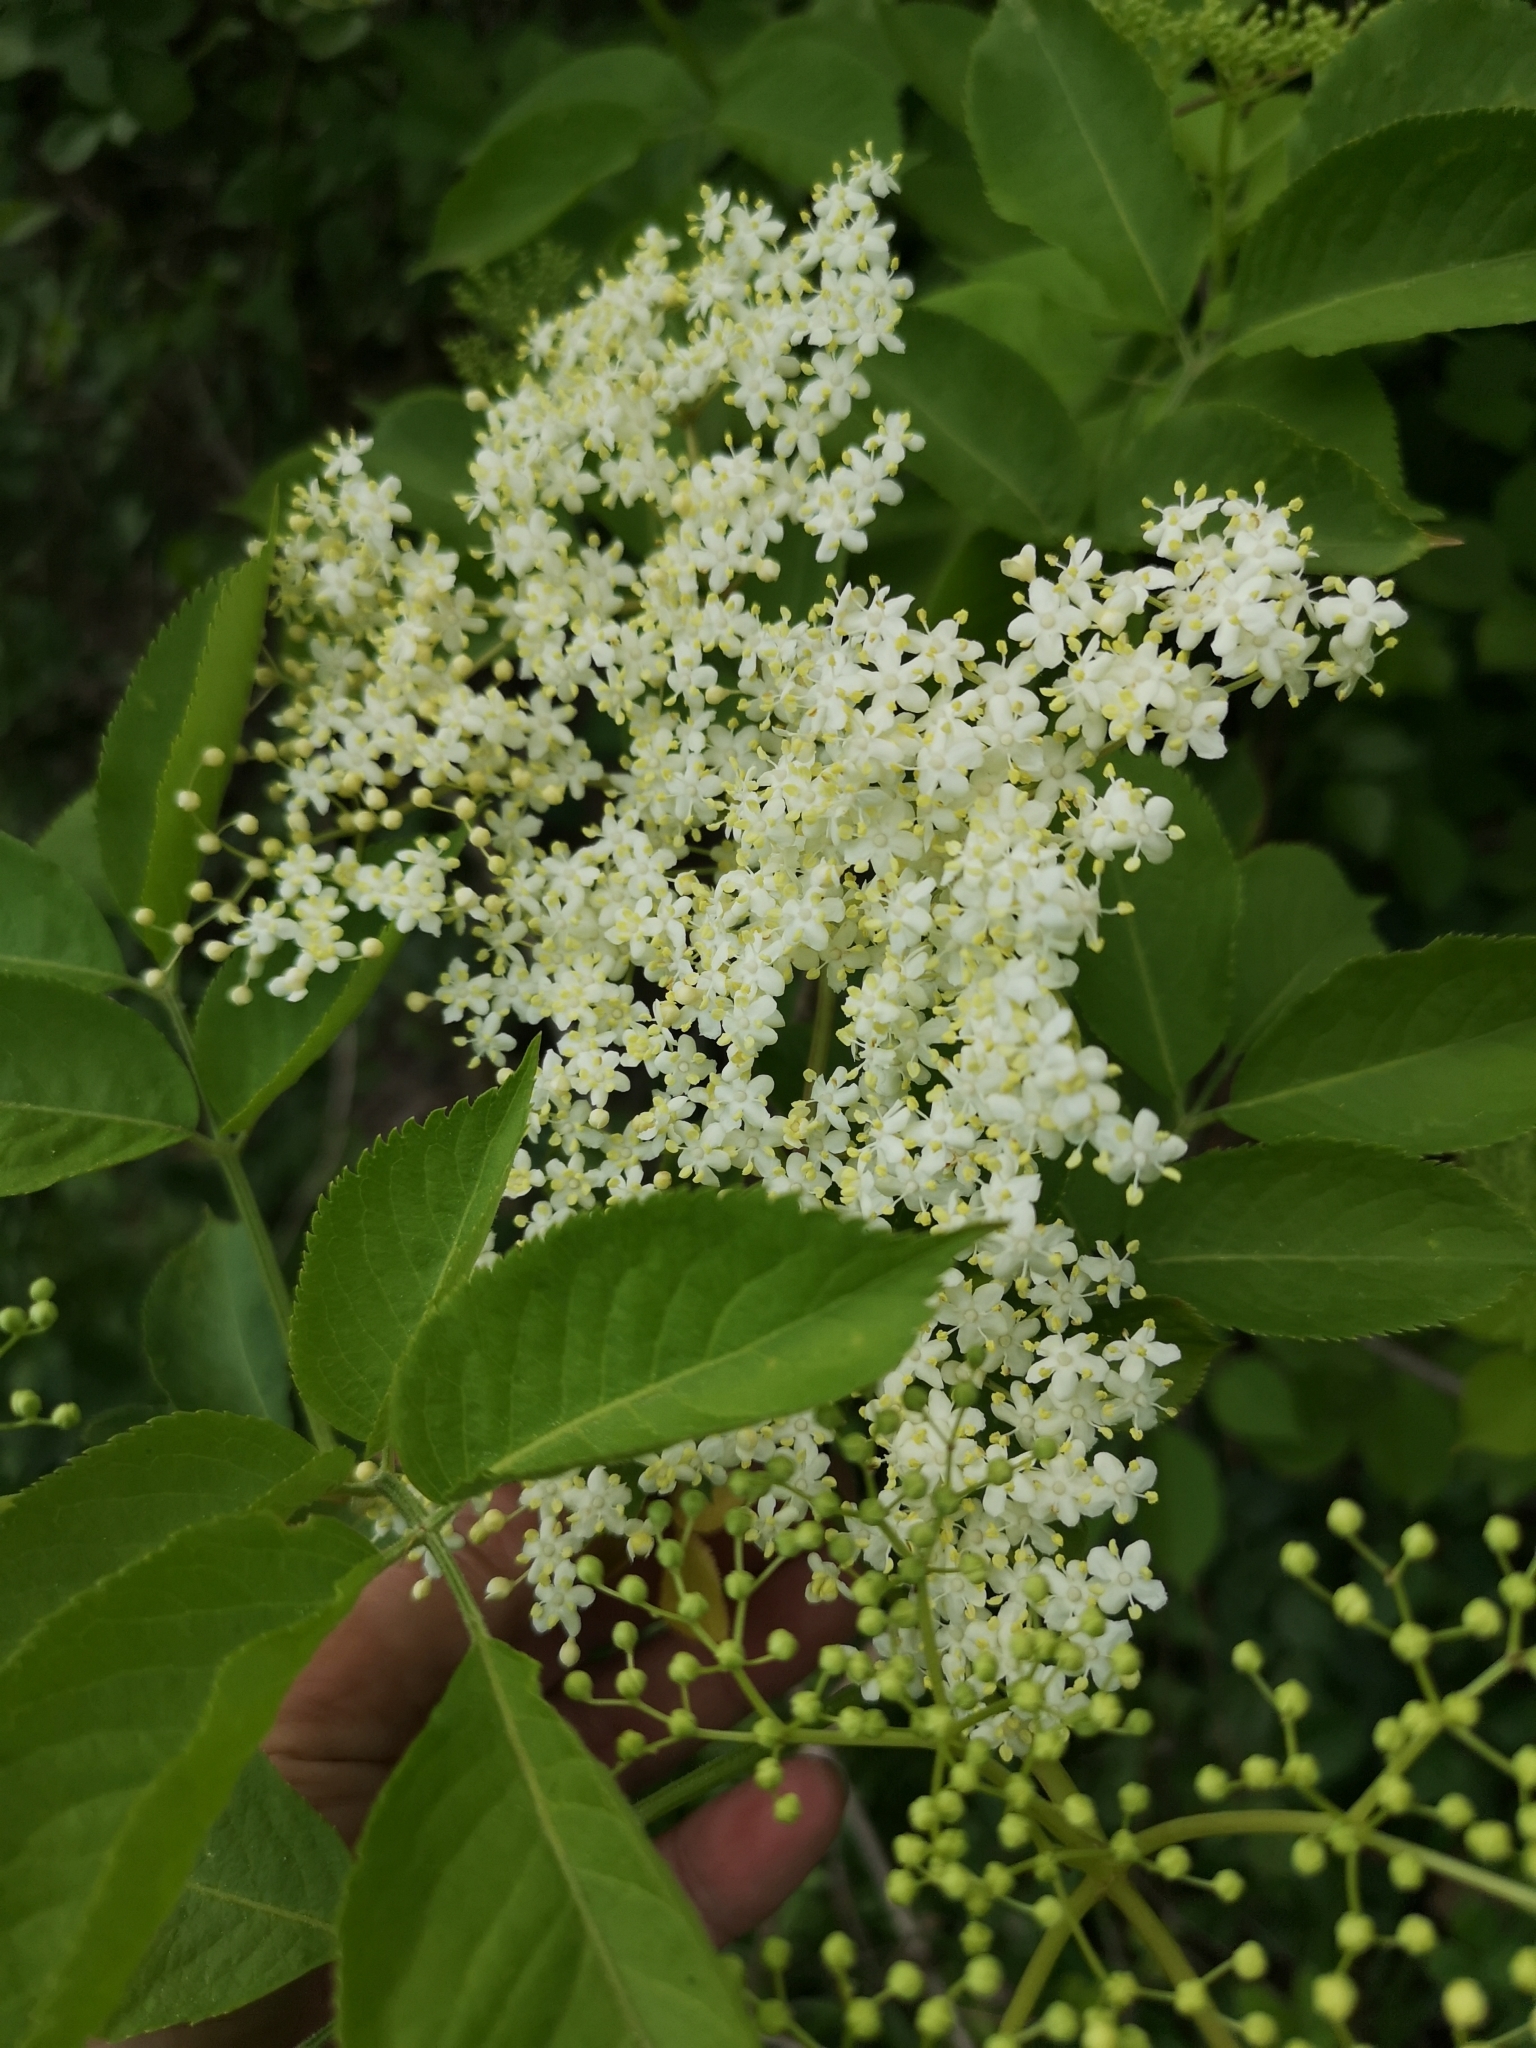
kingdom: Plantae
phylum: Tracheophyta
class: Magnoliopsida
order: Dipsacales
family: Viburnaceae
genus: Sambucus
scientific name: Sambucus nigra
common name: Elder
